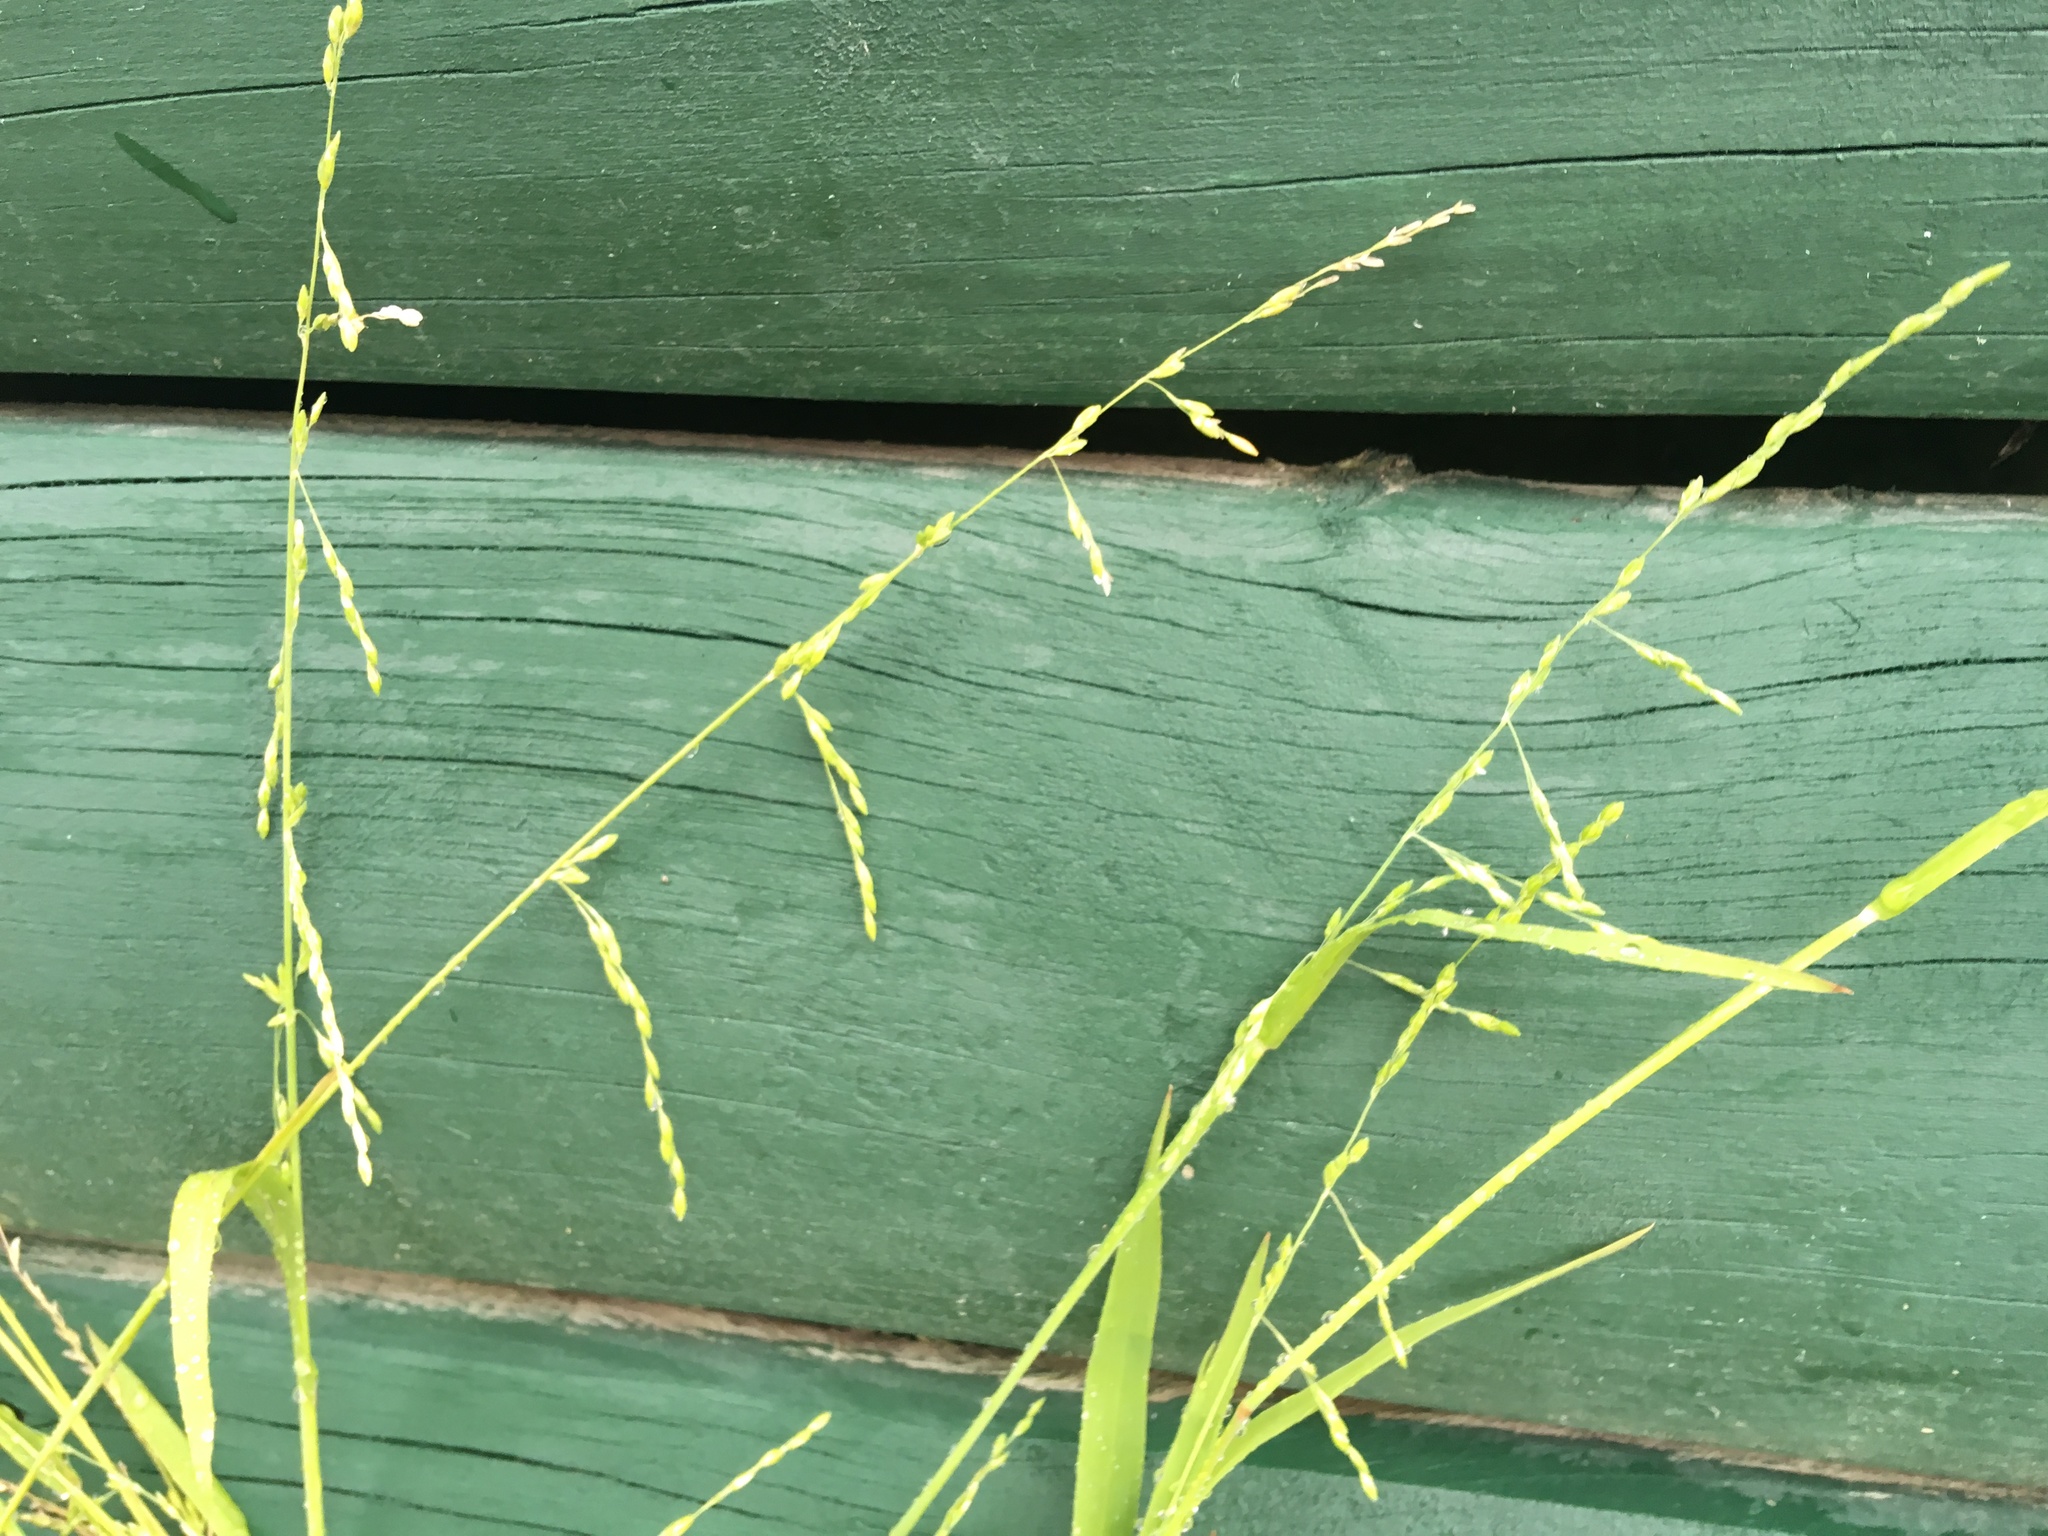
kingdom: Plantae
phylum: Tracheophyta
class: Liliopsida
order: Poales
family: Poaceae
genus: Ehrharta
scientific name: Ehrharta erecta
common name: Panic veldtgrass
